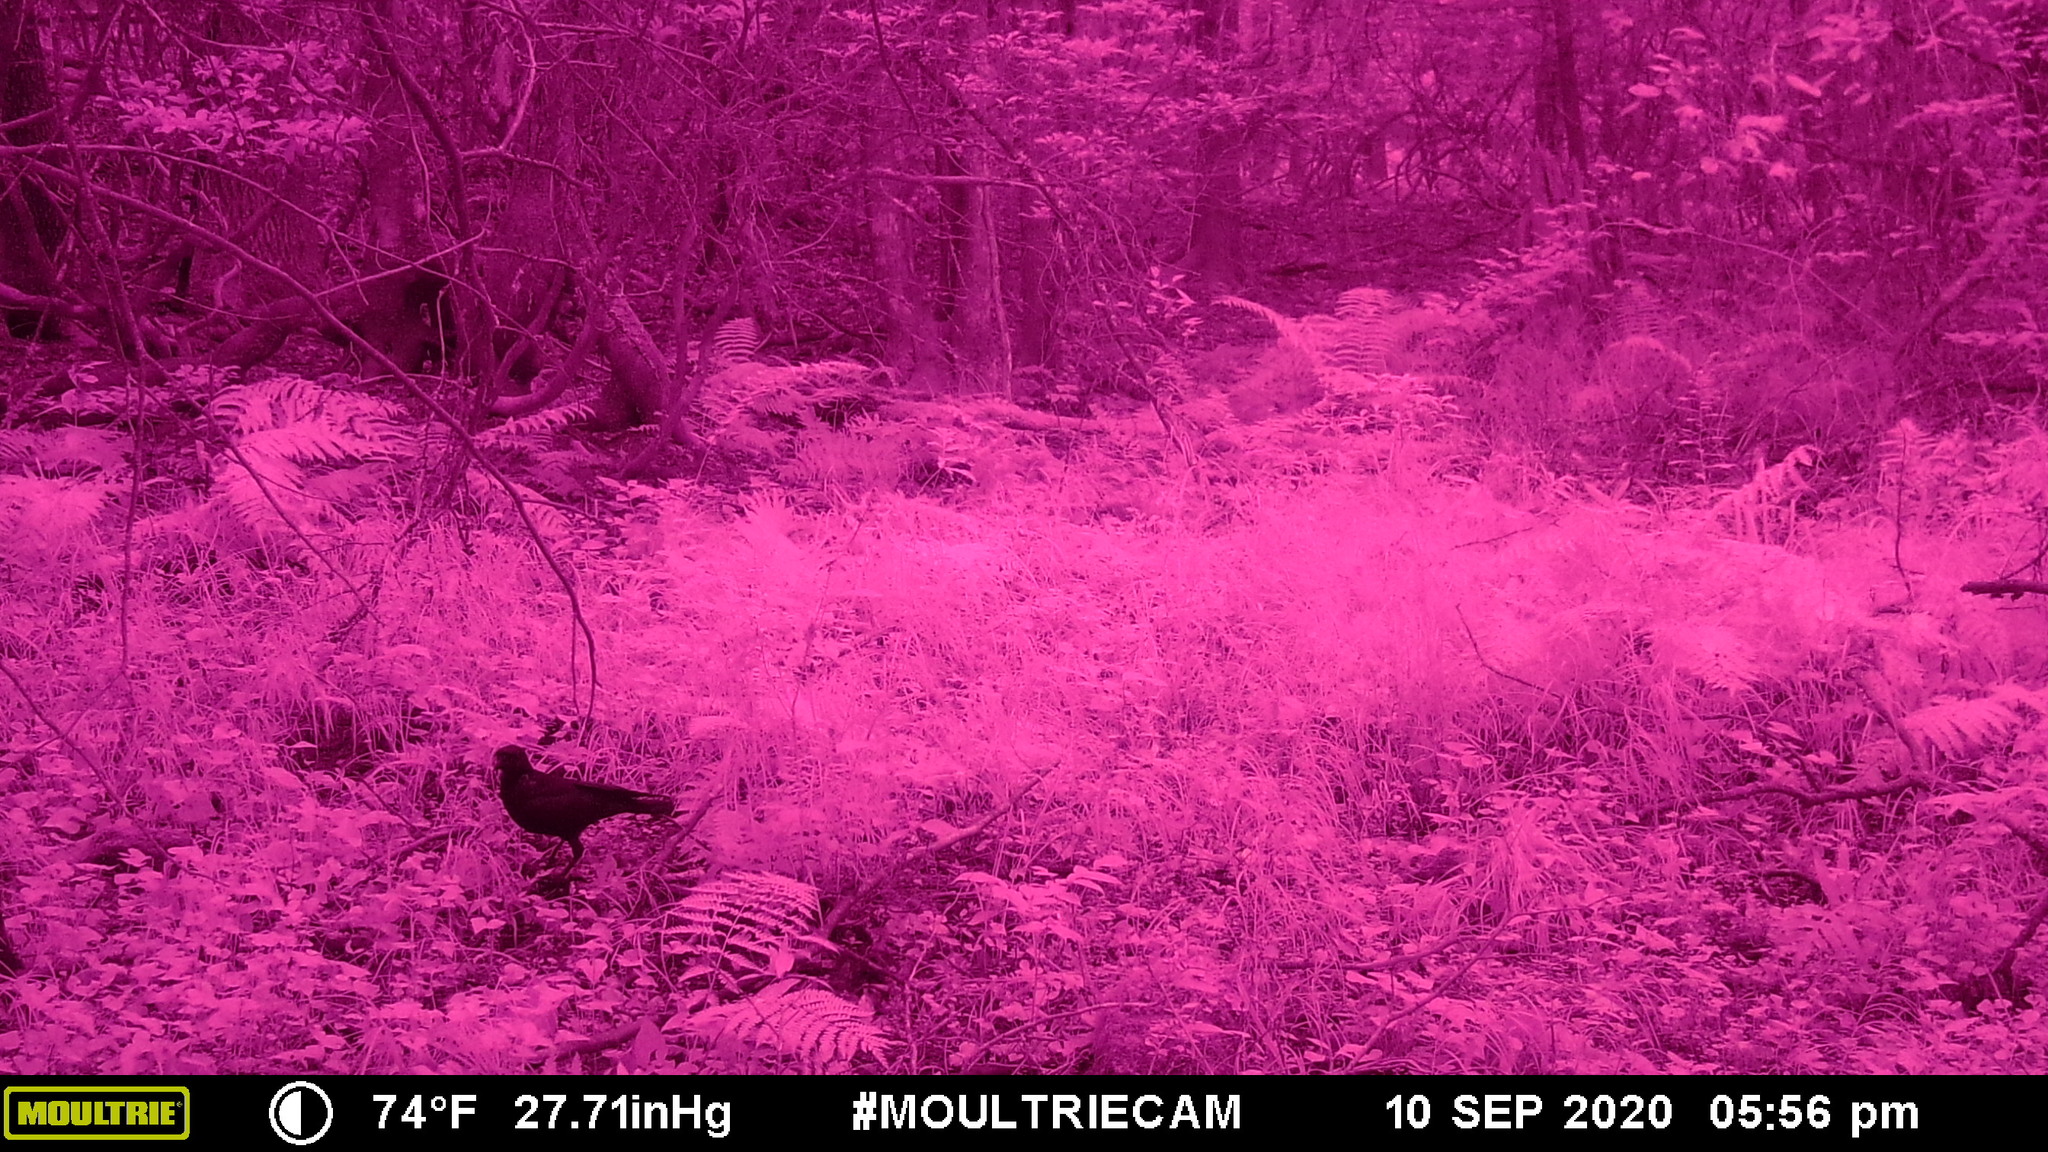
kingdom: Animalia
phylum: Chordata
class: Aves
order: Passeriformes
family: Corvidae
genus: Corvus
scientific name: Corvus brachyrhynchos
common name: American crow
